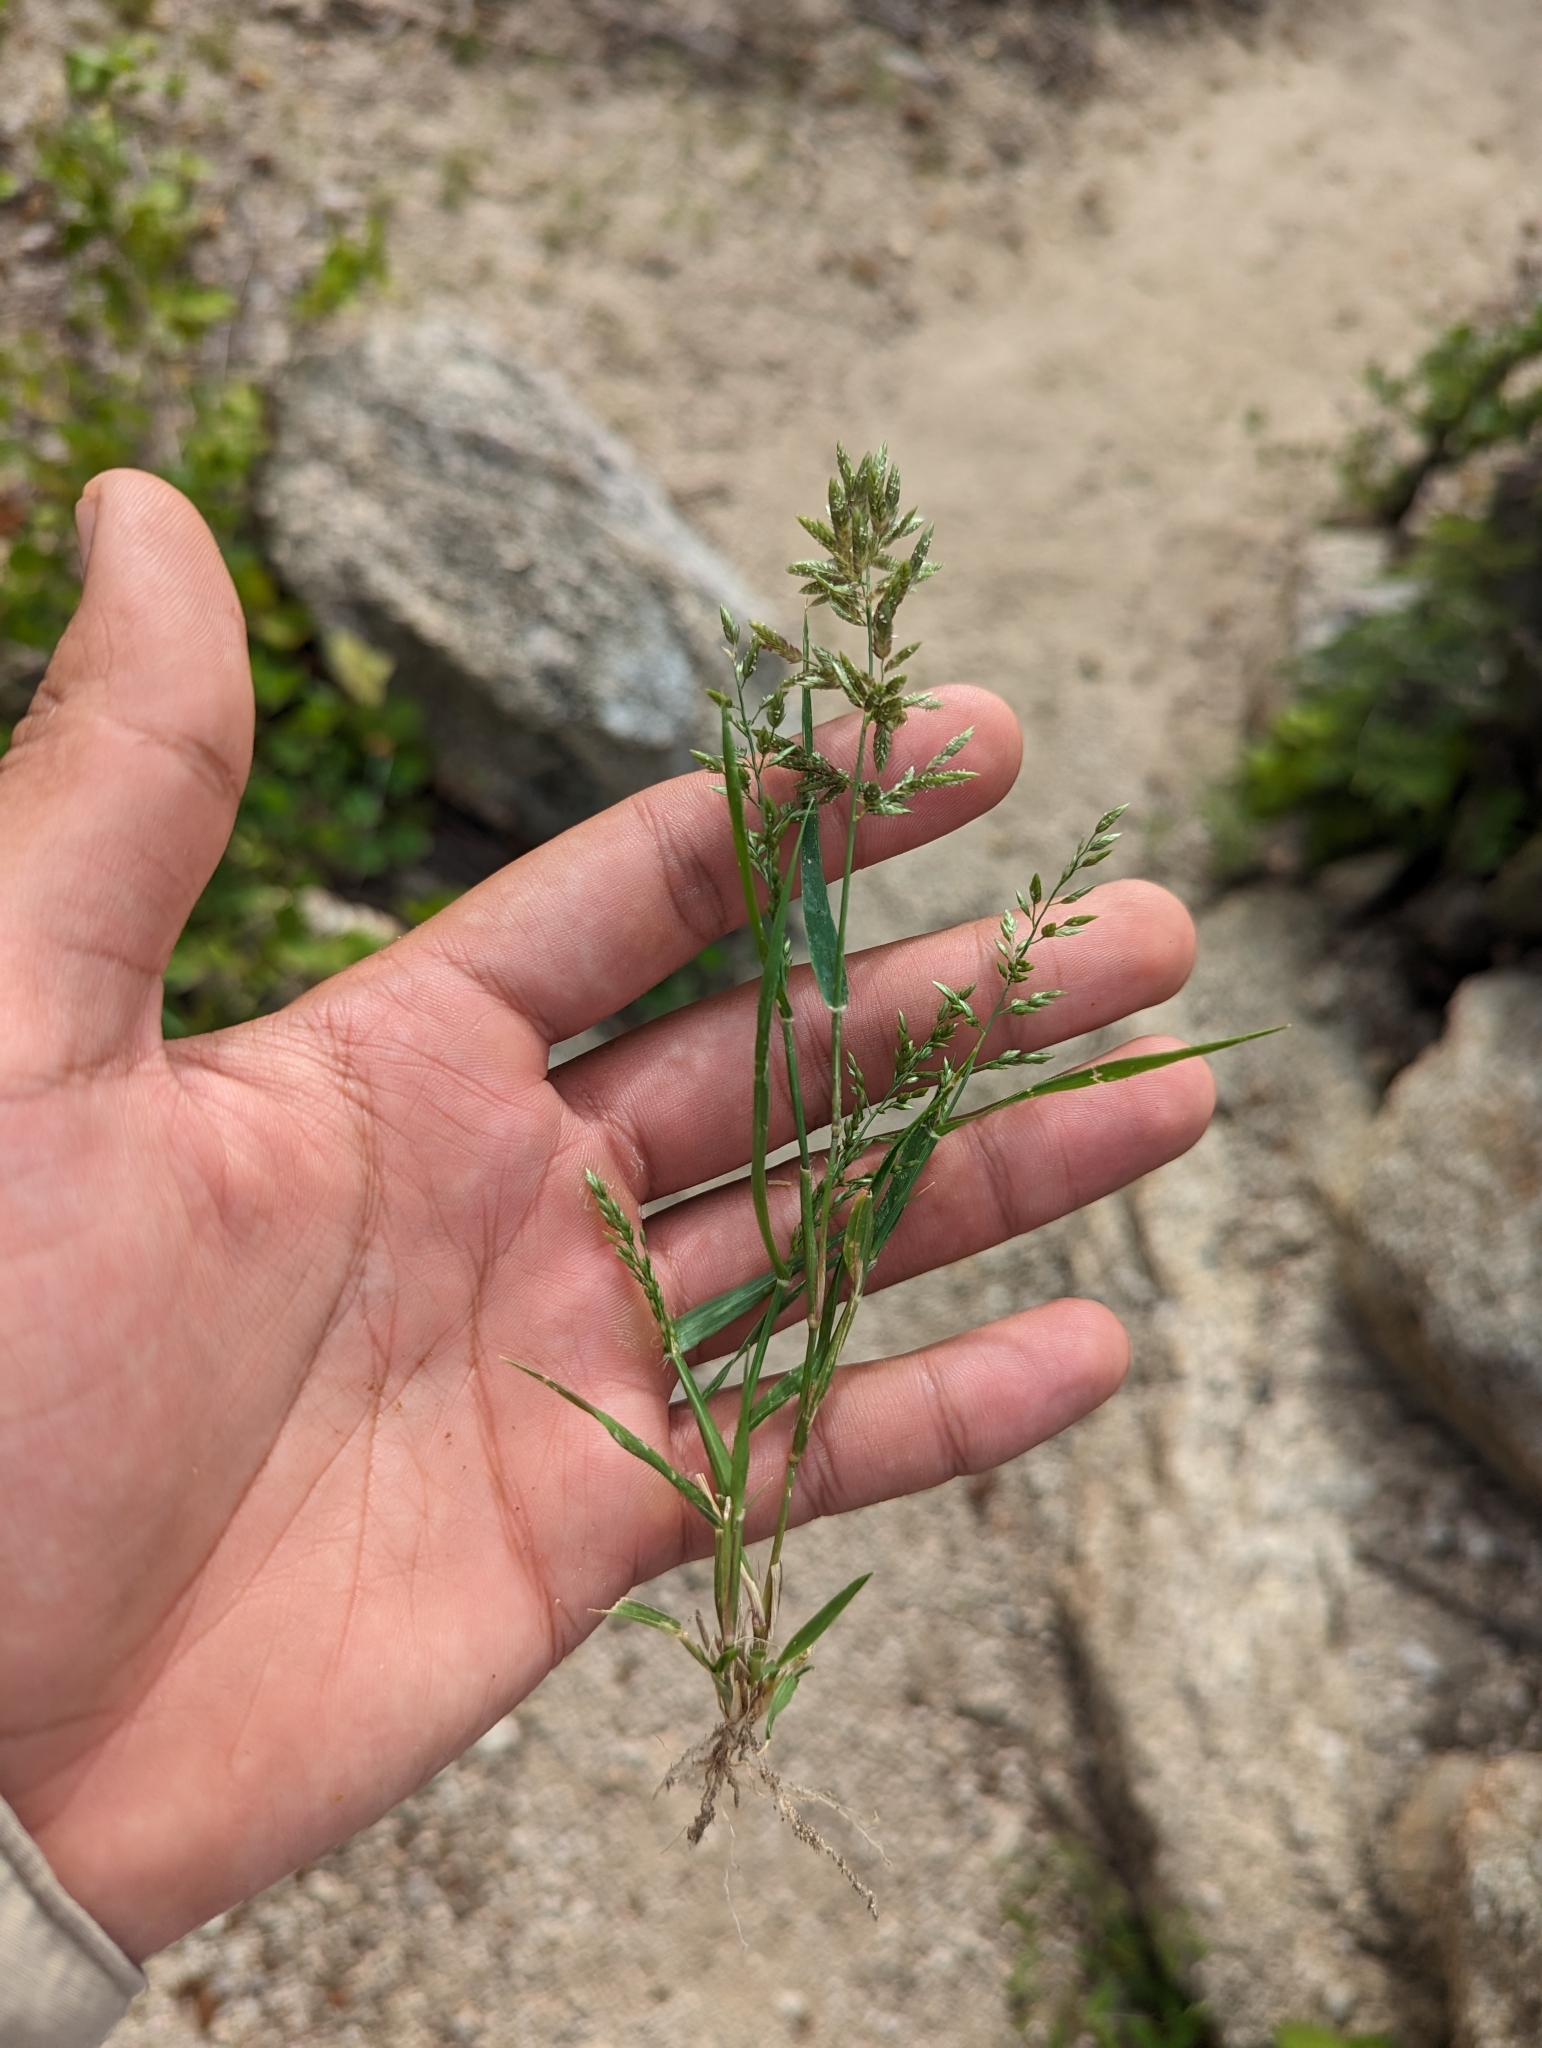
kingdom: Plantae
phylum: Tracheophyta
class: Liliopsida
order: Poales
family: Poaceae
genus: Eragrostis
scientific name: Eragrostis cilianensis
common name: Stinkgrass
